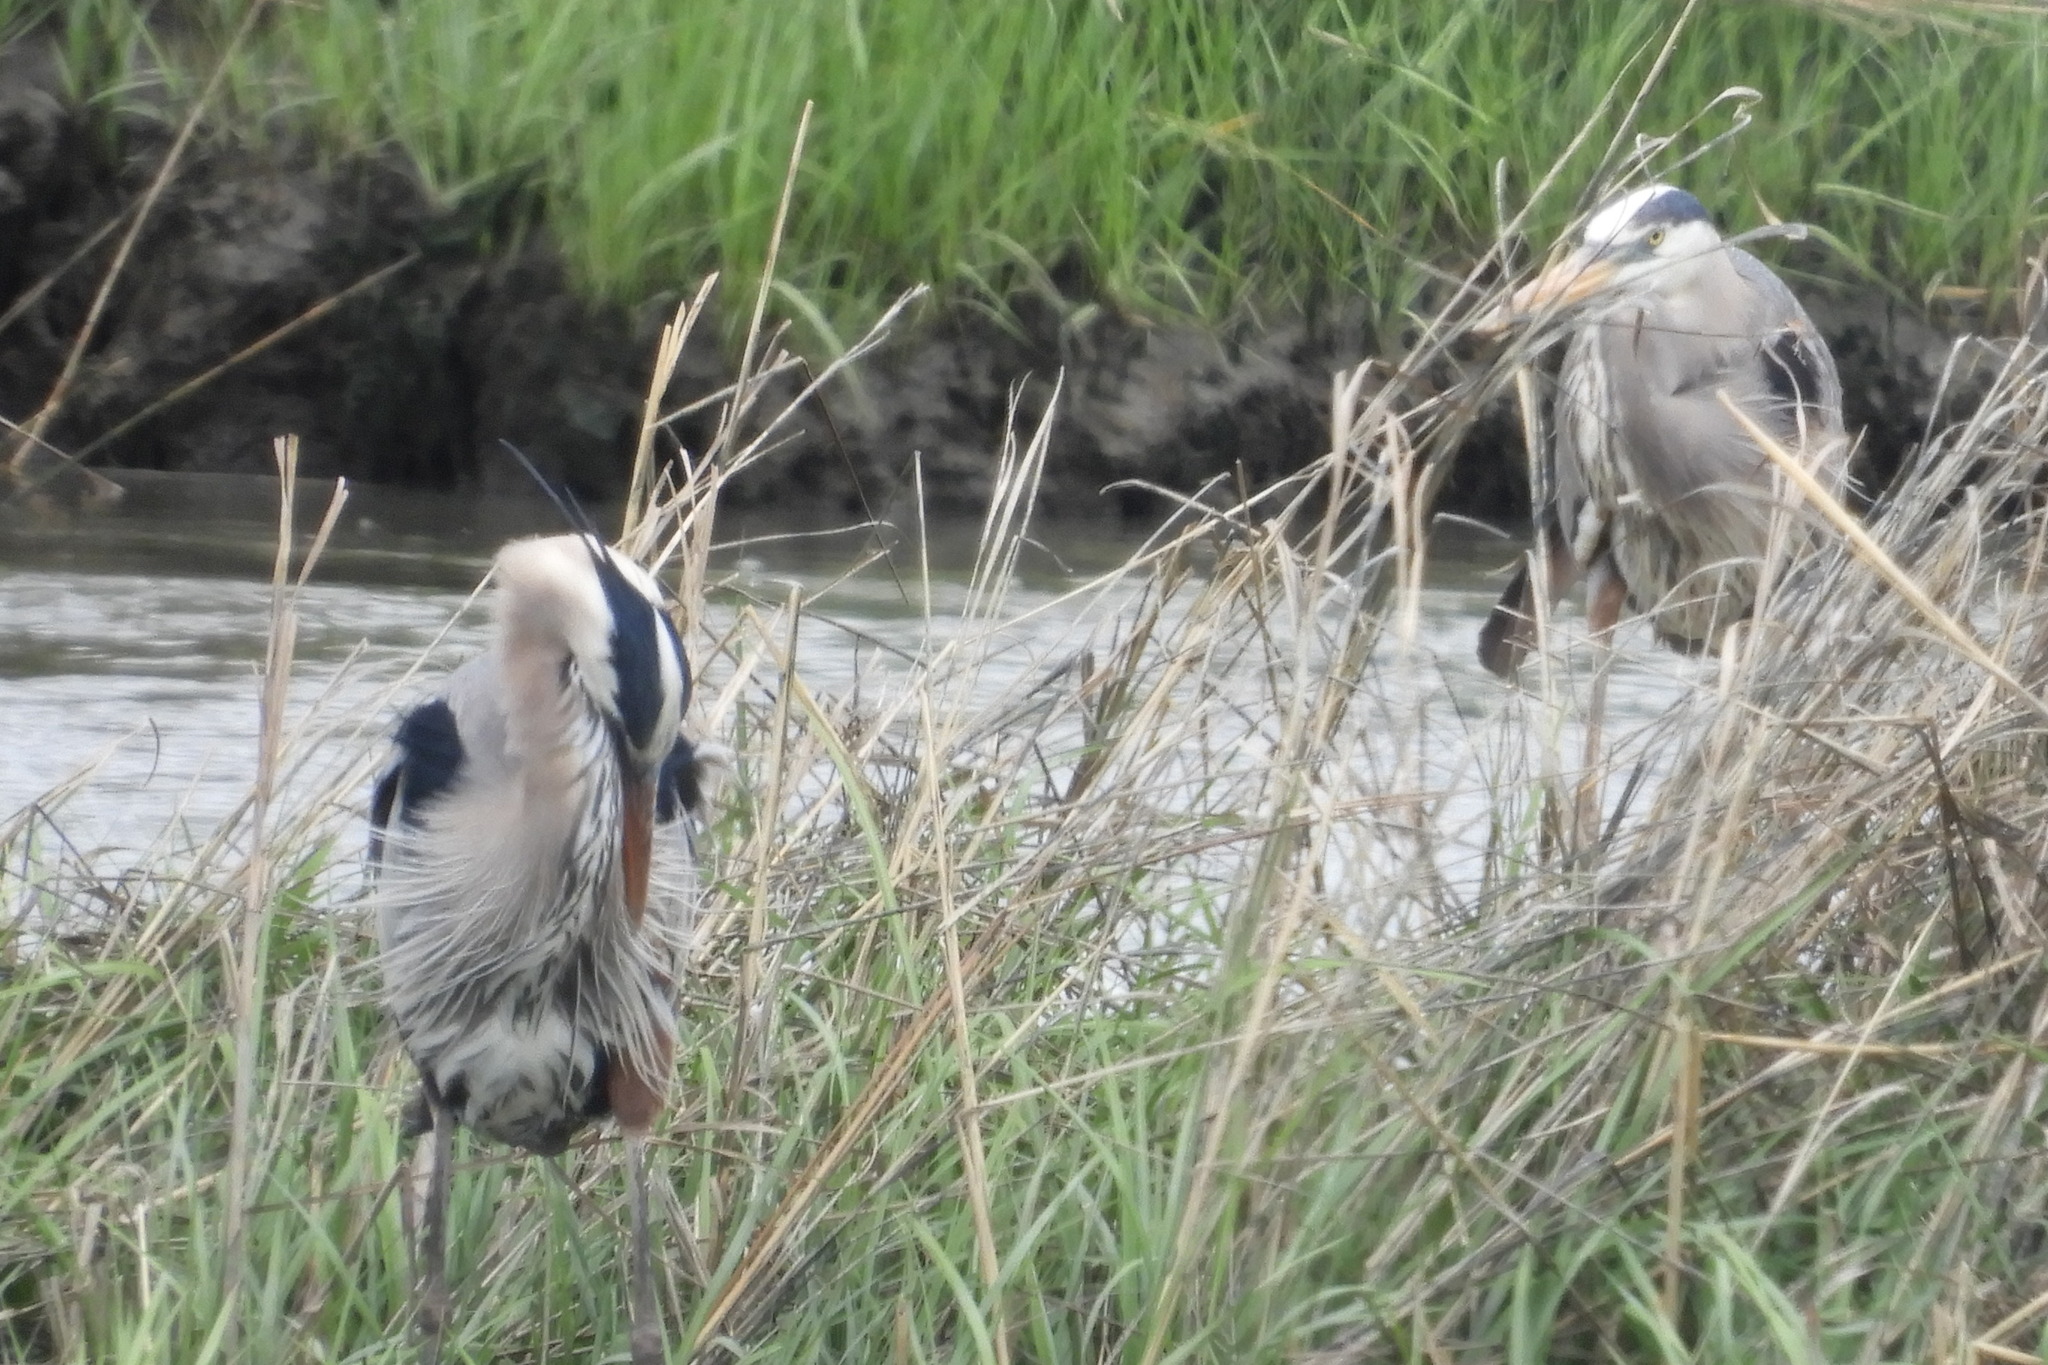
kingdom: Animalia
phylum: Chordata
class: Aves
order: Pelecaniformes
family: Ardeidae
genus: Ardea
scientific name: Ardea herodias
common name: Great blue heron
